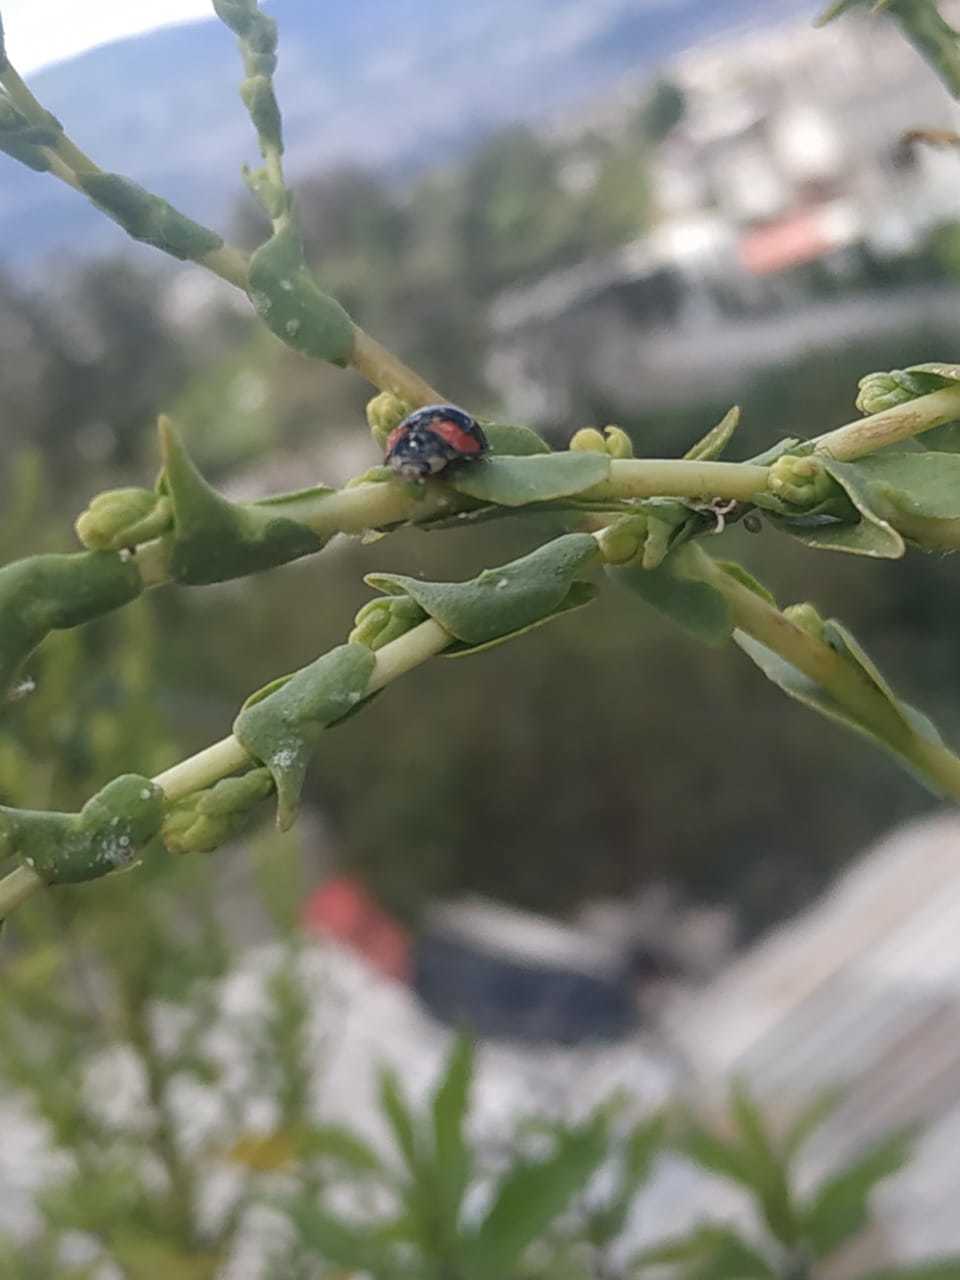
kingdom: Animalia
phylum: Arthropoda
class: Insecta
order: Coleoptera
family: Coccinellidae
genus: Cheilomenes
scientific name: Cheilomenes sexmaculata
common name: Ladybird beetle
